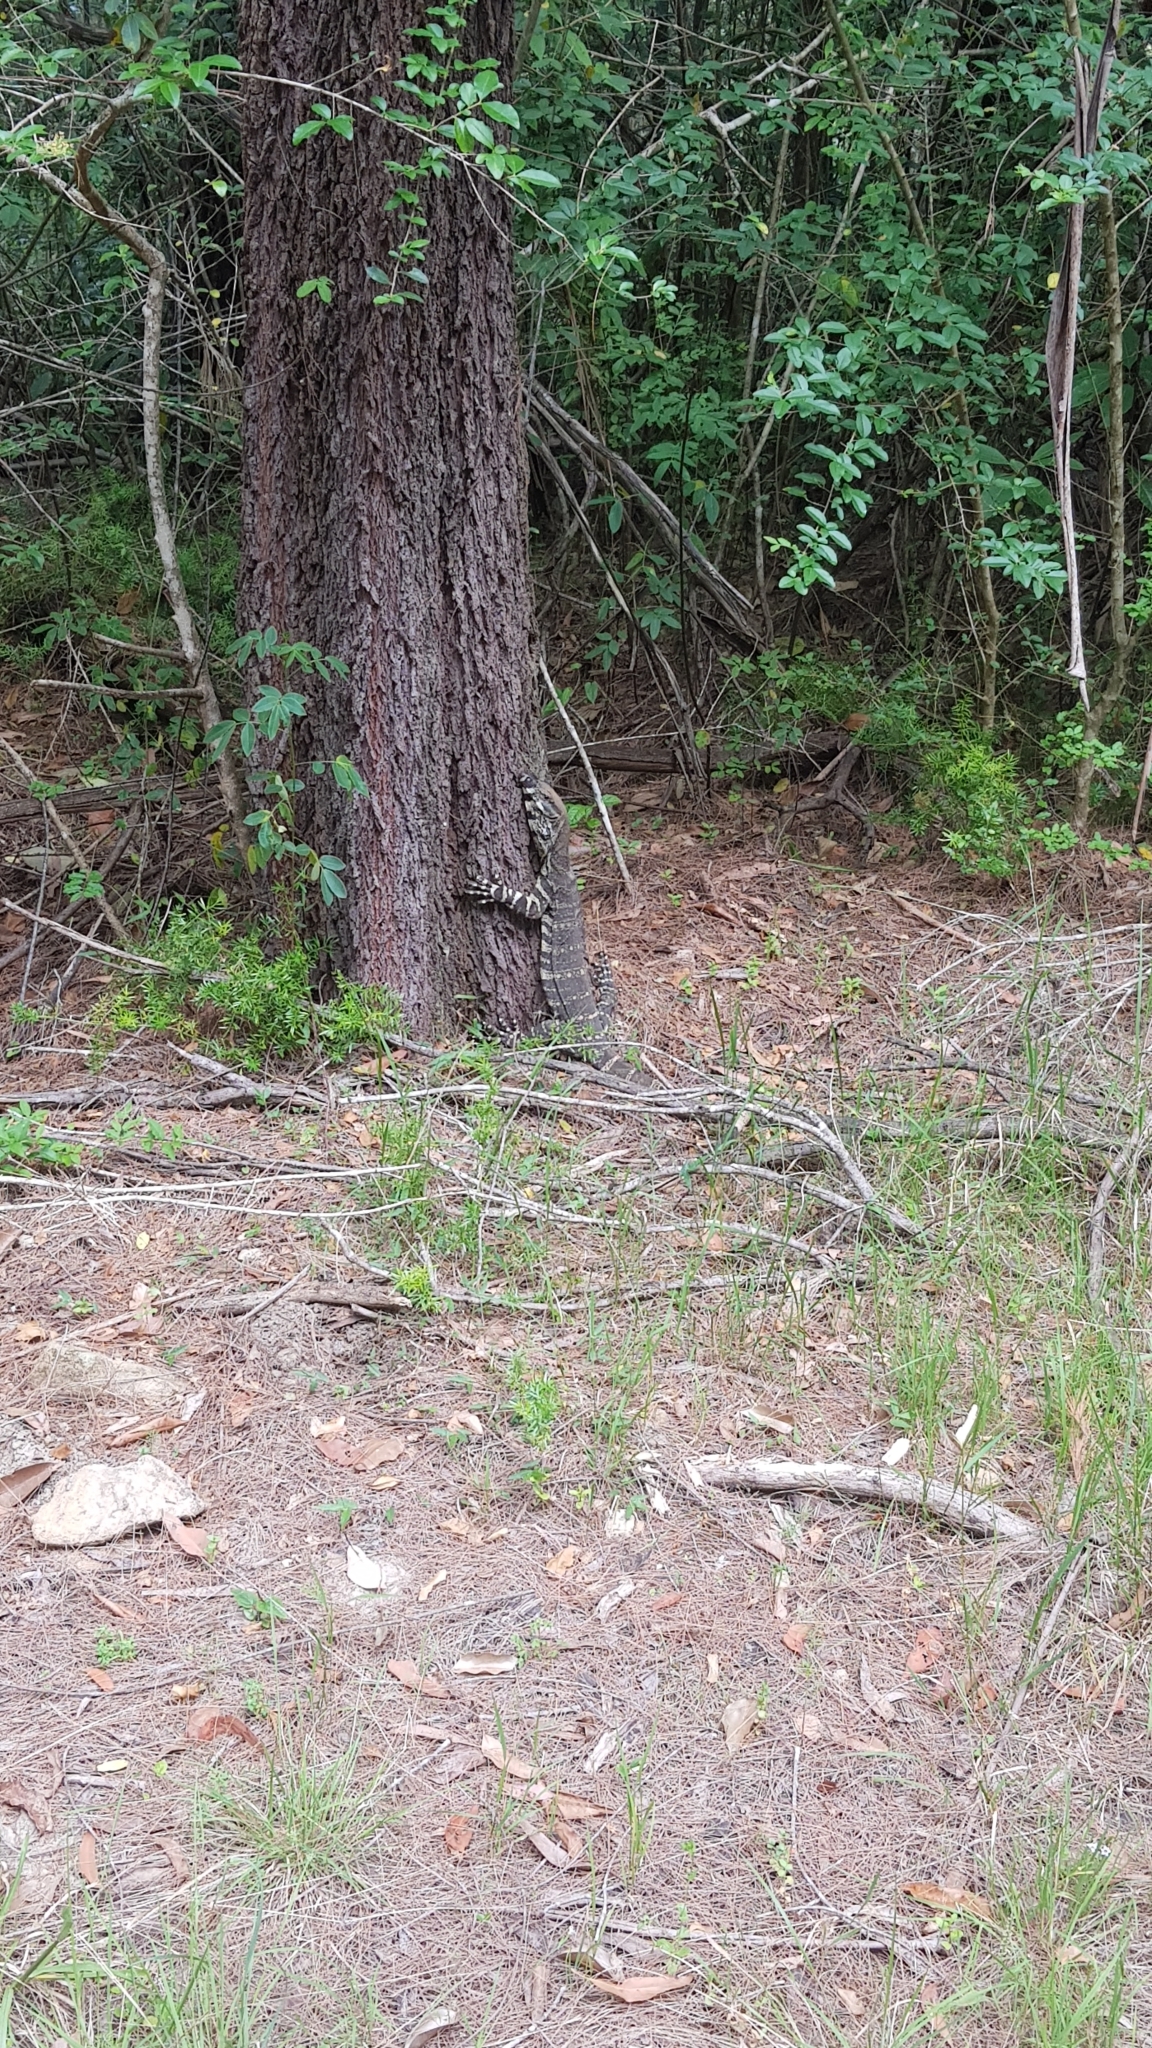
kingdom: Animalia
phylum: Chordata
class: Squamata
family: Varanidae
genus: Varanus
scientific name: Varanus varius
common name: Lace monitor
